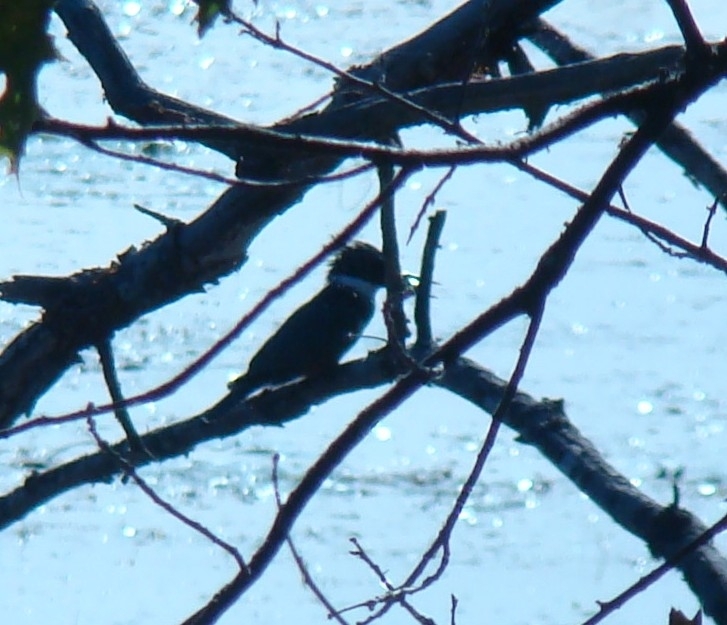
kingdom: Animalia
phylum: Chordata
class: Aves
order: Coraciiformes
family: Alcedinidae
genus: Megaceryle
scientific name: Megaceryle alcyon
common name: Belted kingfisher
